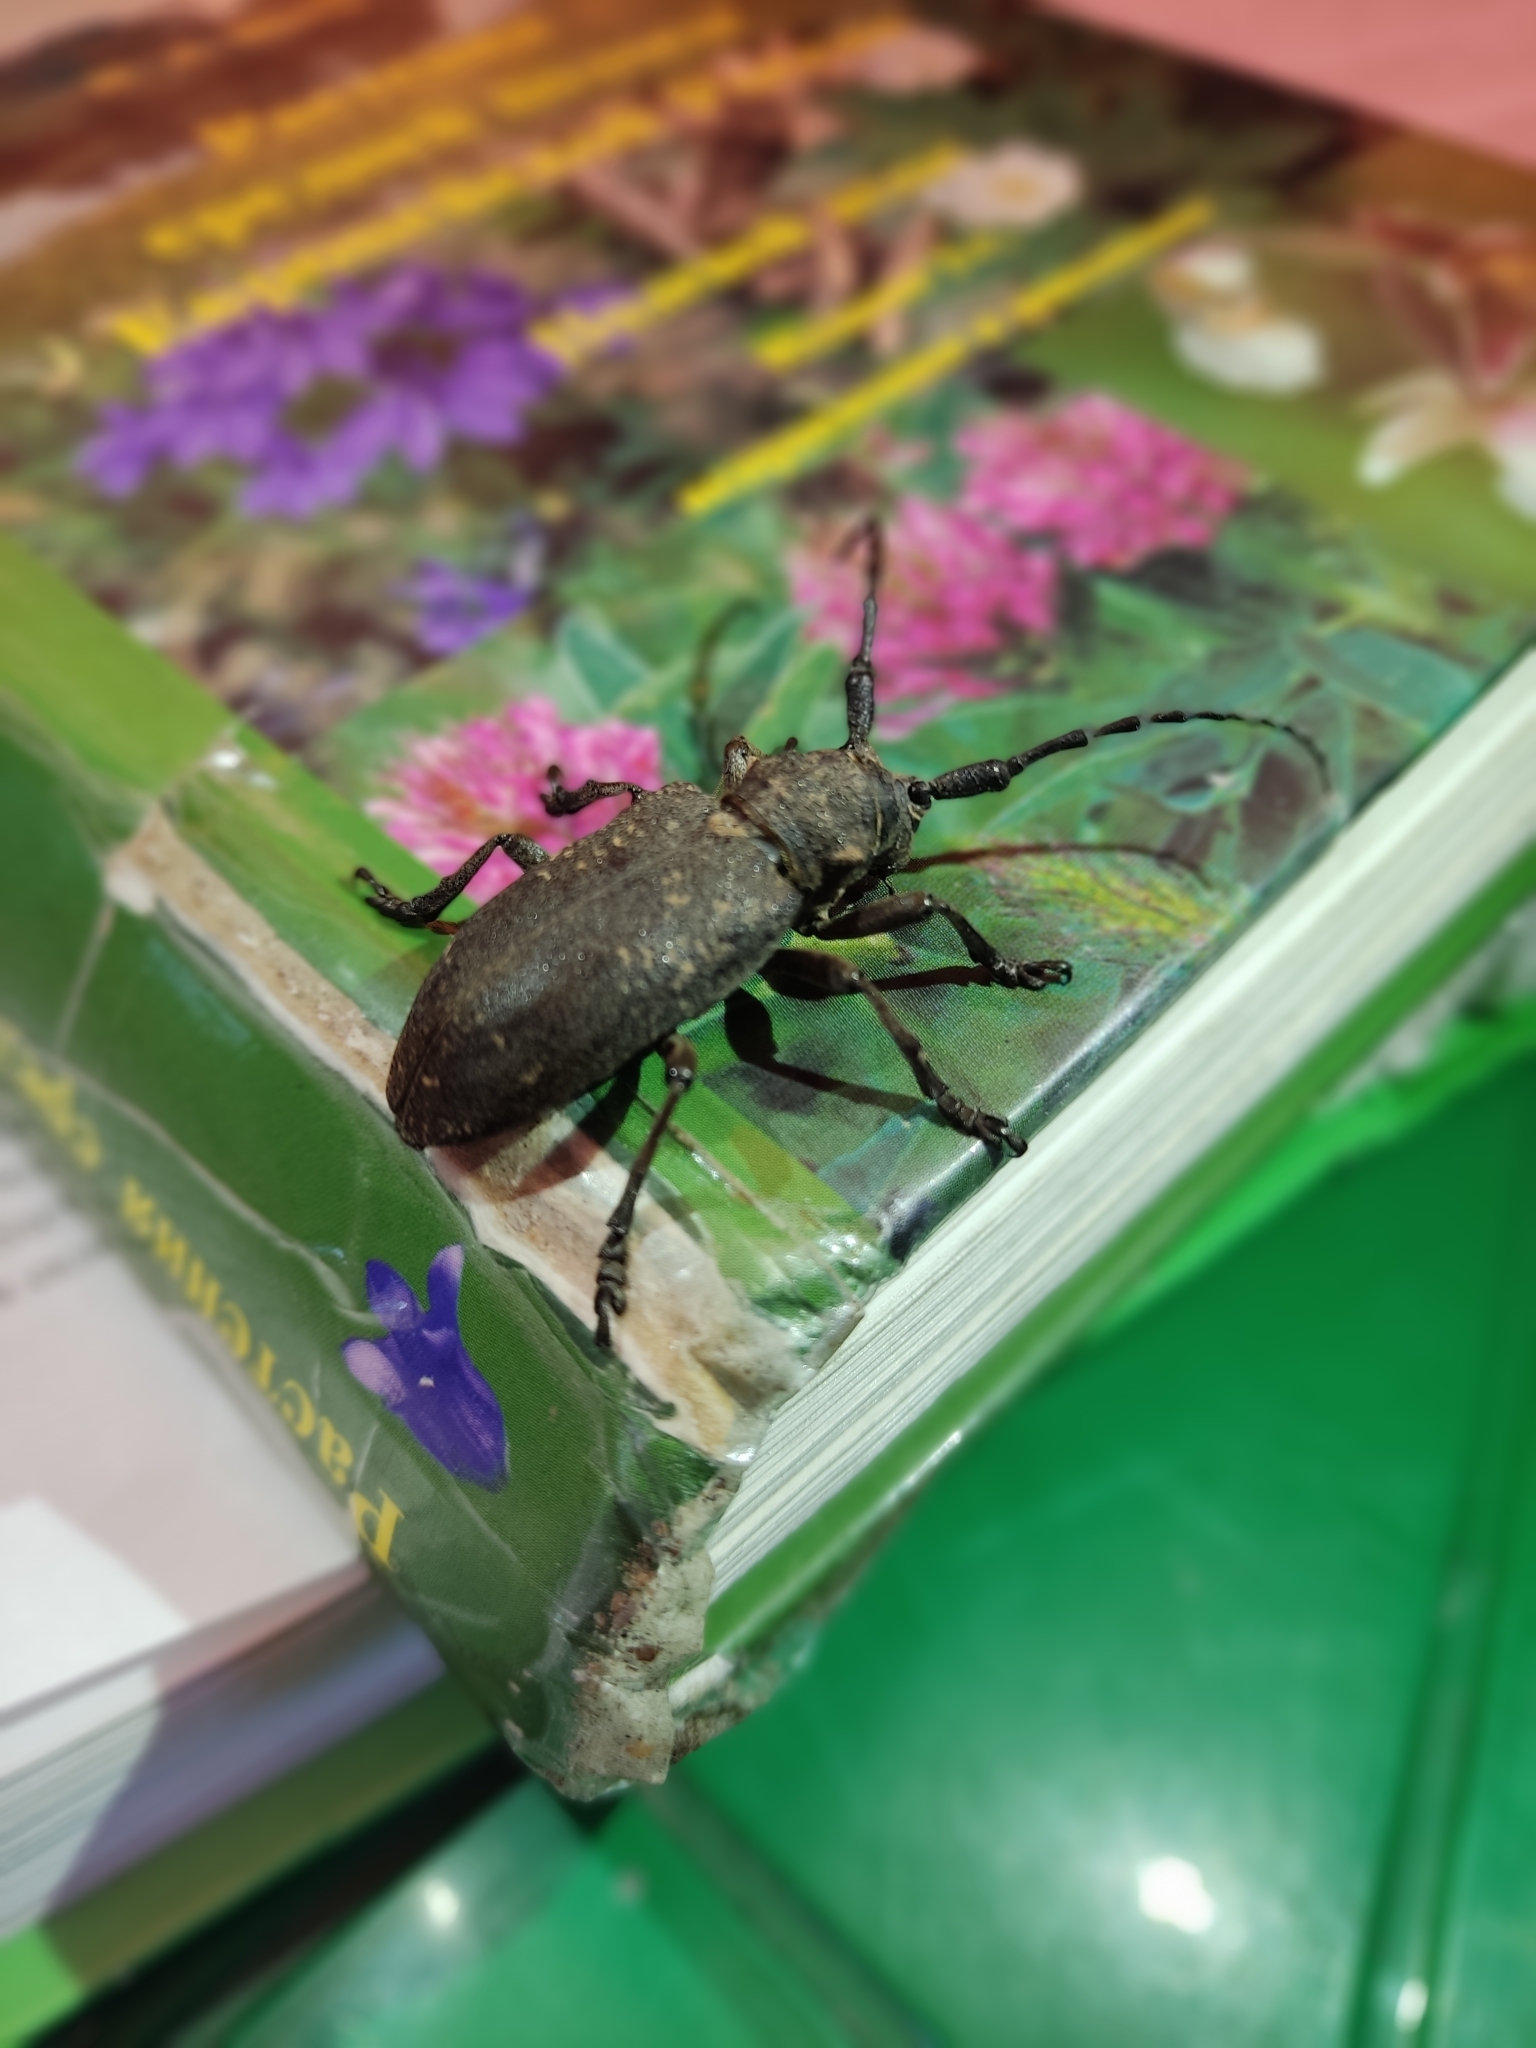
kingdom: Animalia
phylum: Arthropoda
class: Insecta
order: Coleoptera
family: Cerambycidae
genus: Lamia
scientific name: Lamia textor
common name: Weaver beetle
